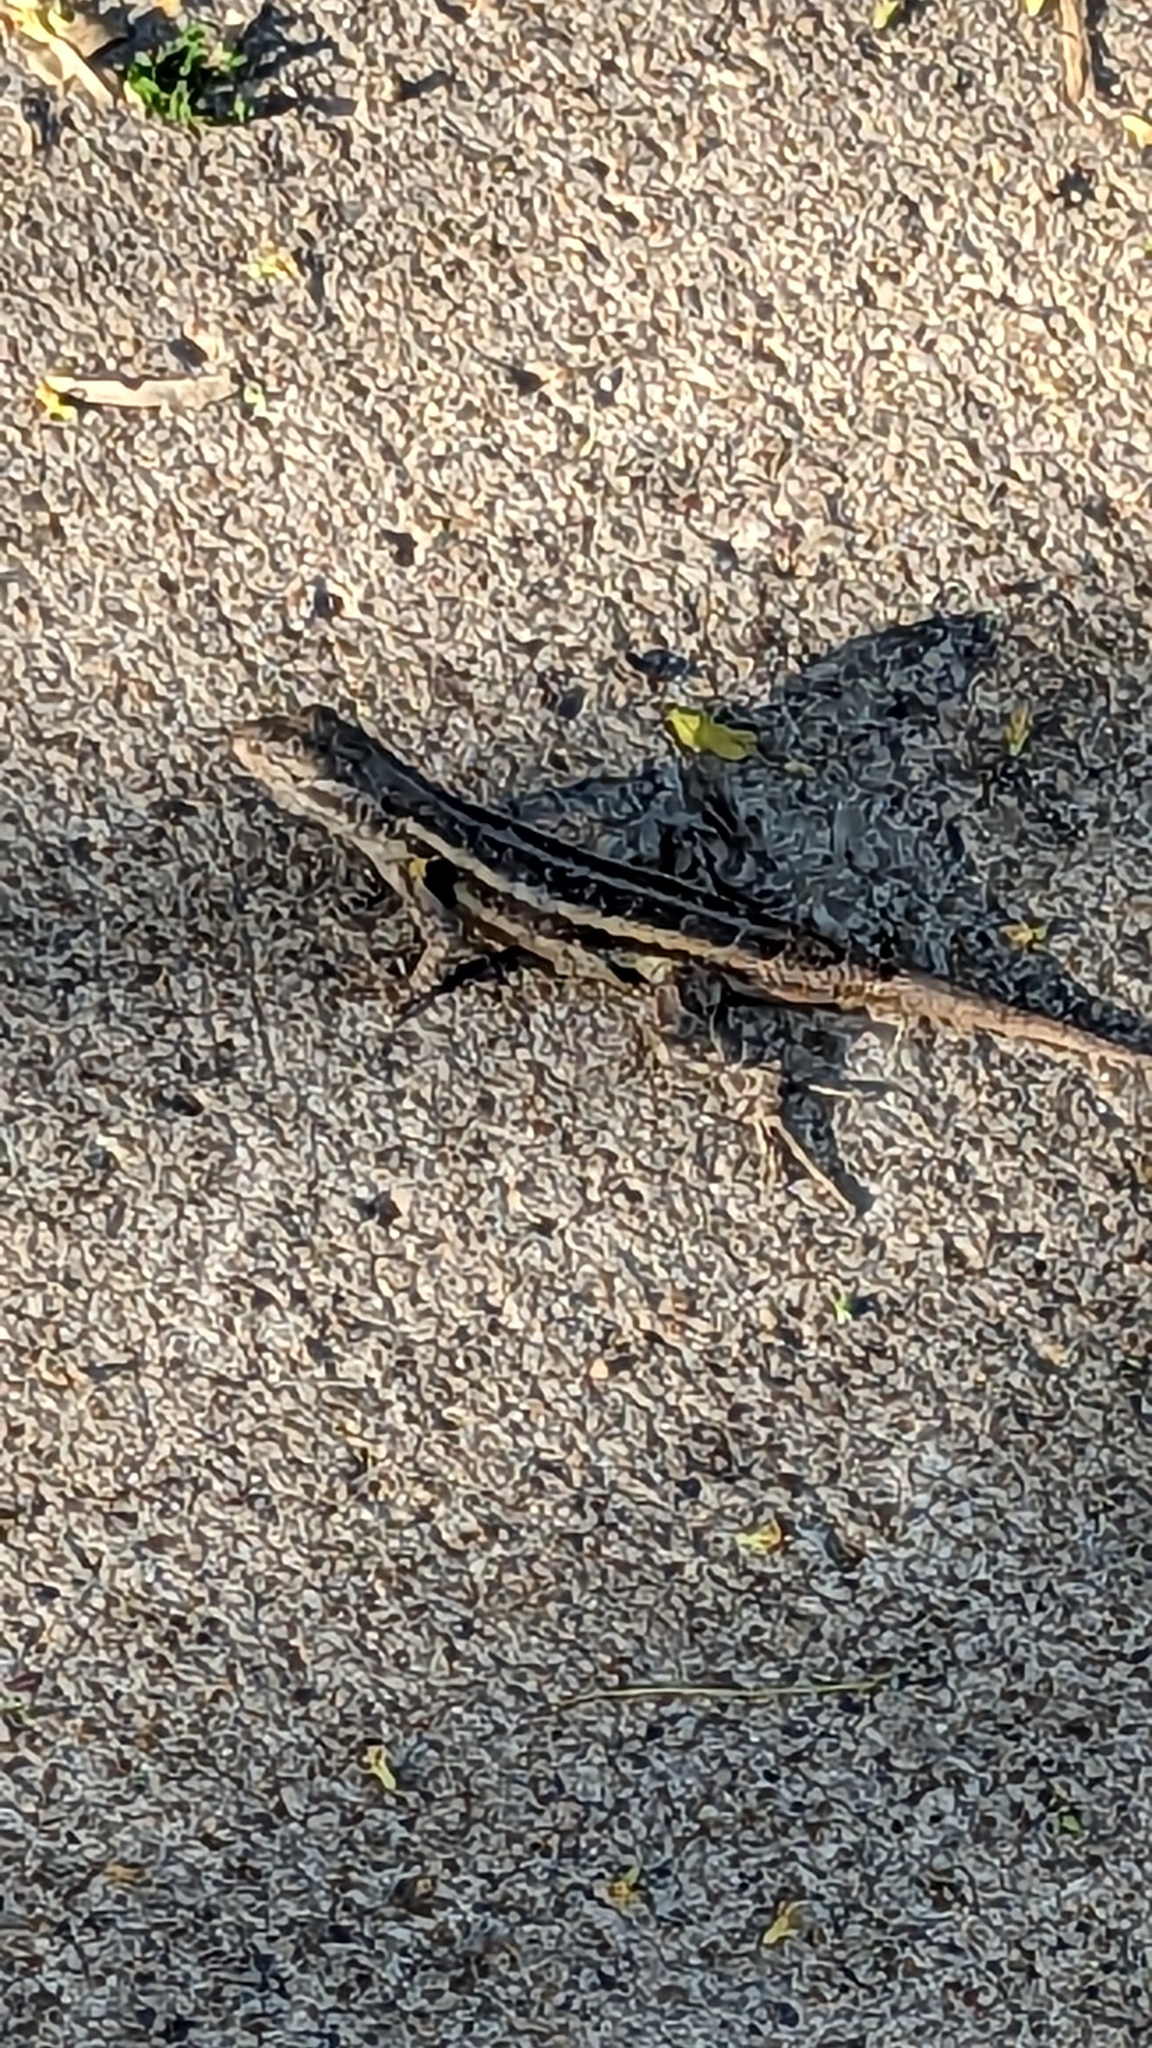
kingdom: Animalia
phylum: Chordata
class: Squamata
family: Phrynosomatidae
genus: Sceloporus
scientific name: Sceloporus variabilis
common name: Rosebelly lizard
